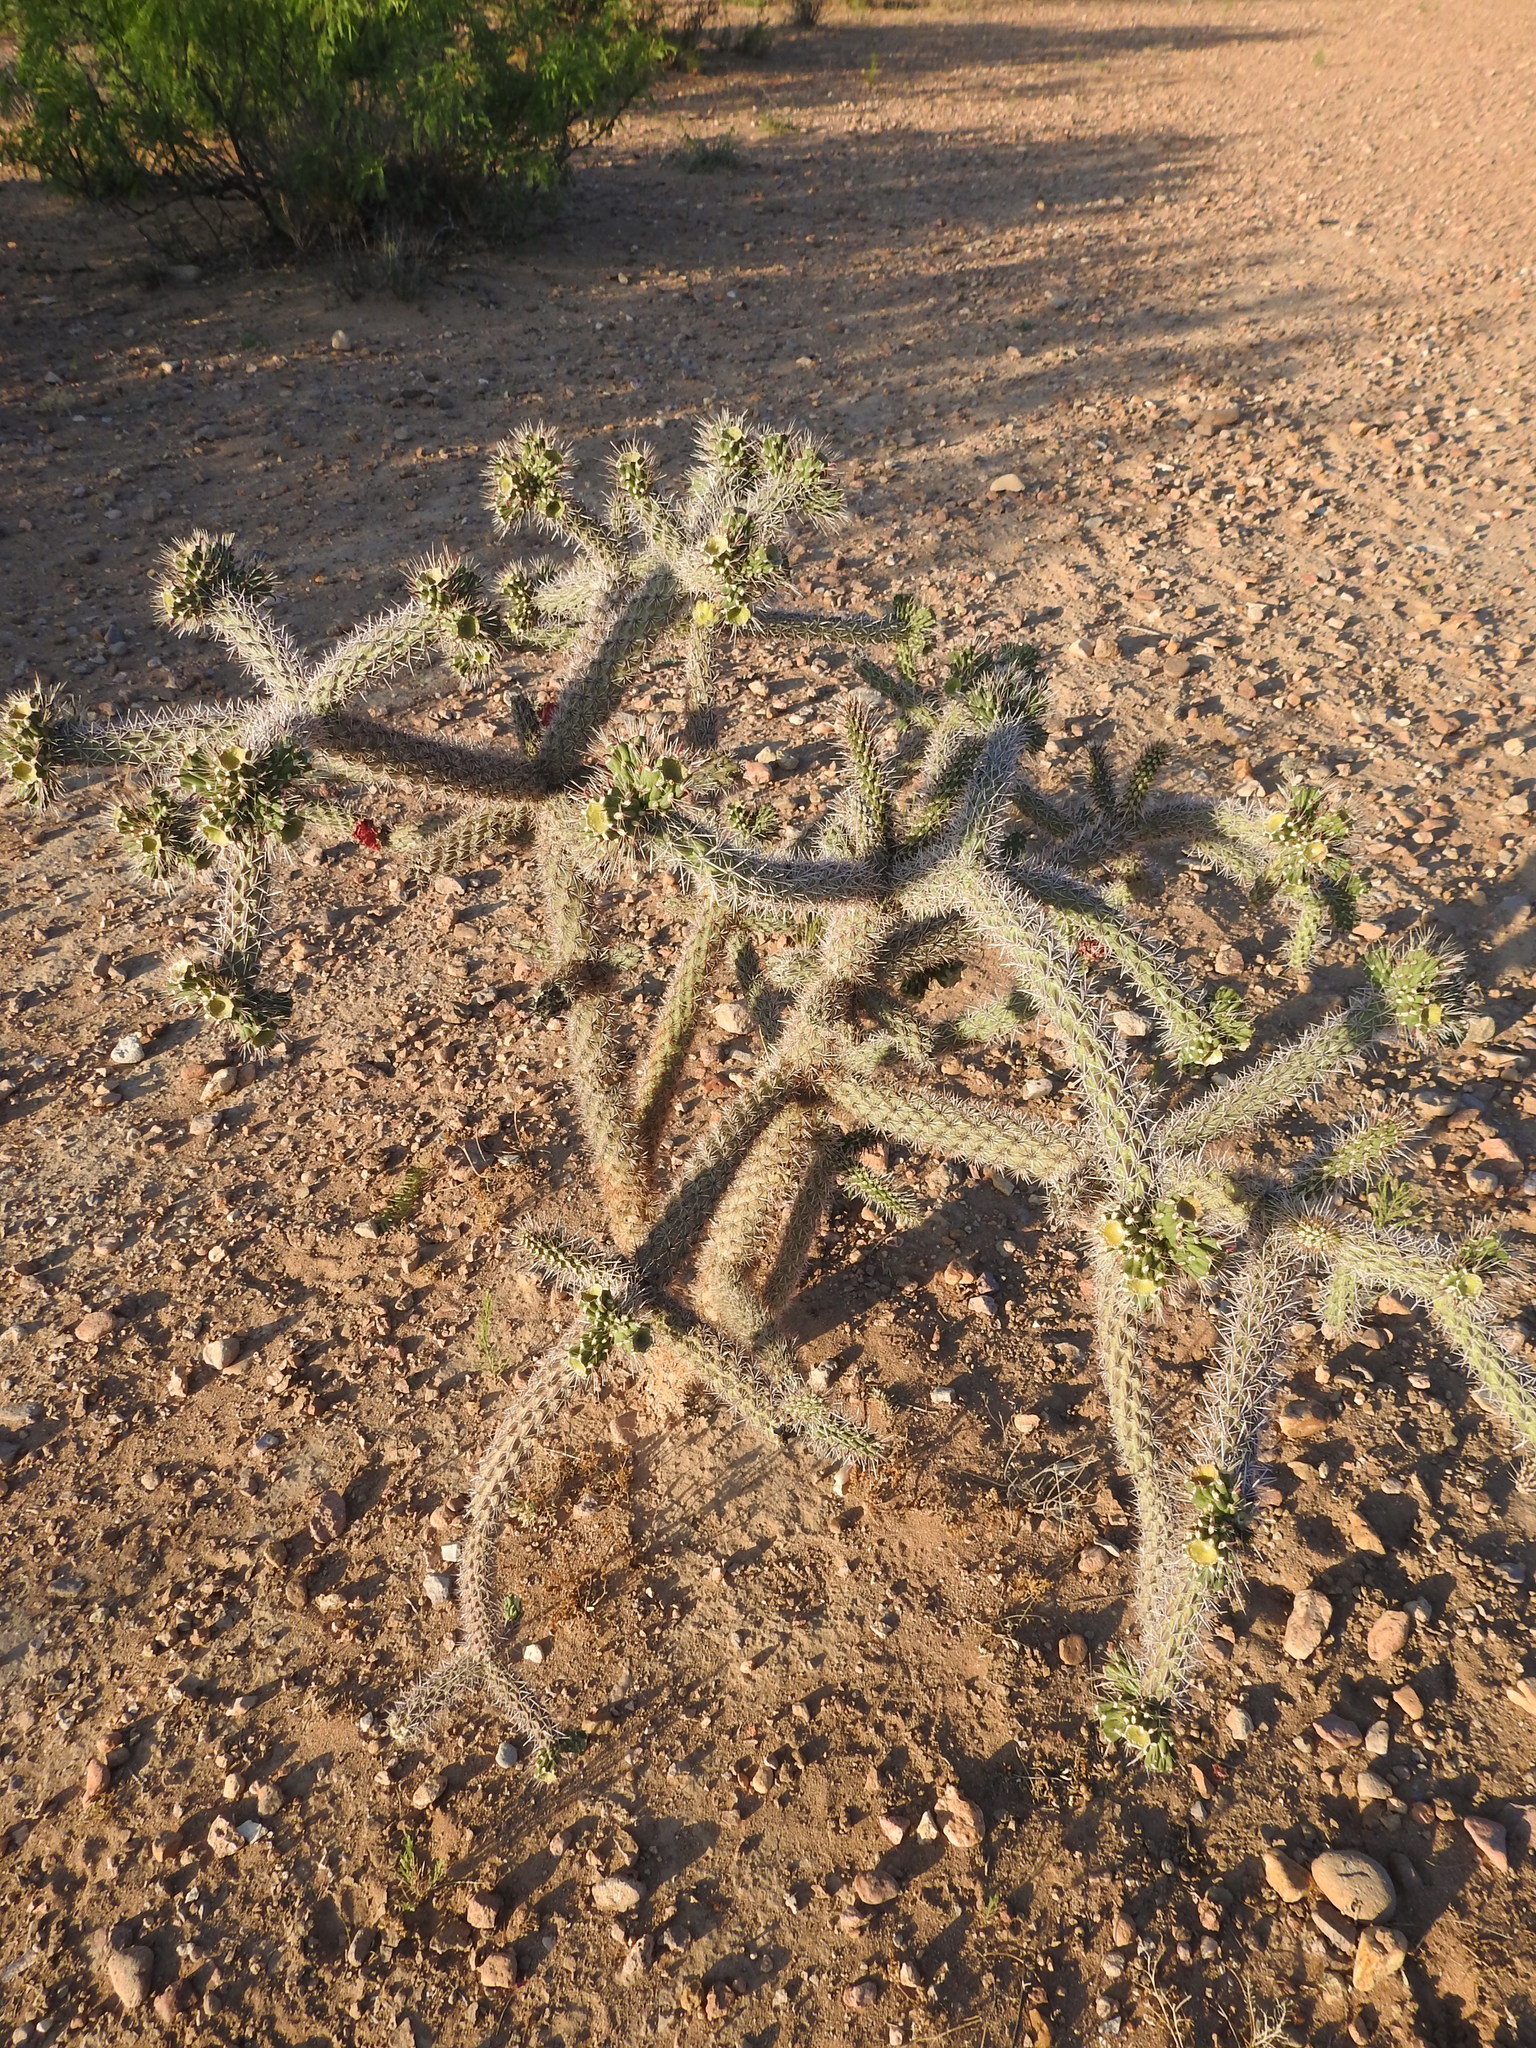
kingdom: Plantae
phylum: Tracheophyta
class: Magnoliopsida
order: Caryophyllales
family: Cactaceae
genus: Cylindropuntia
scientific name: Cylindropuntia imbricata
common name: Candelabrum cactus
